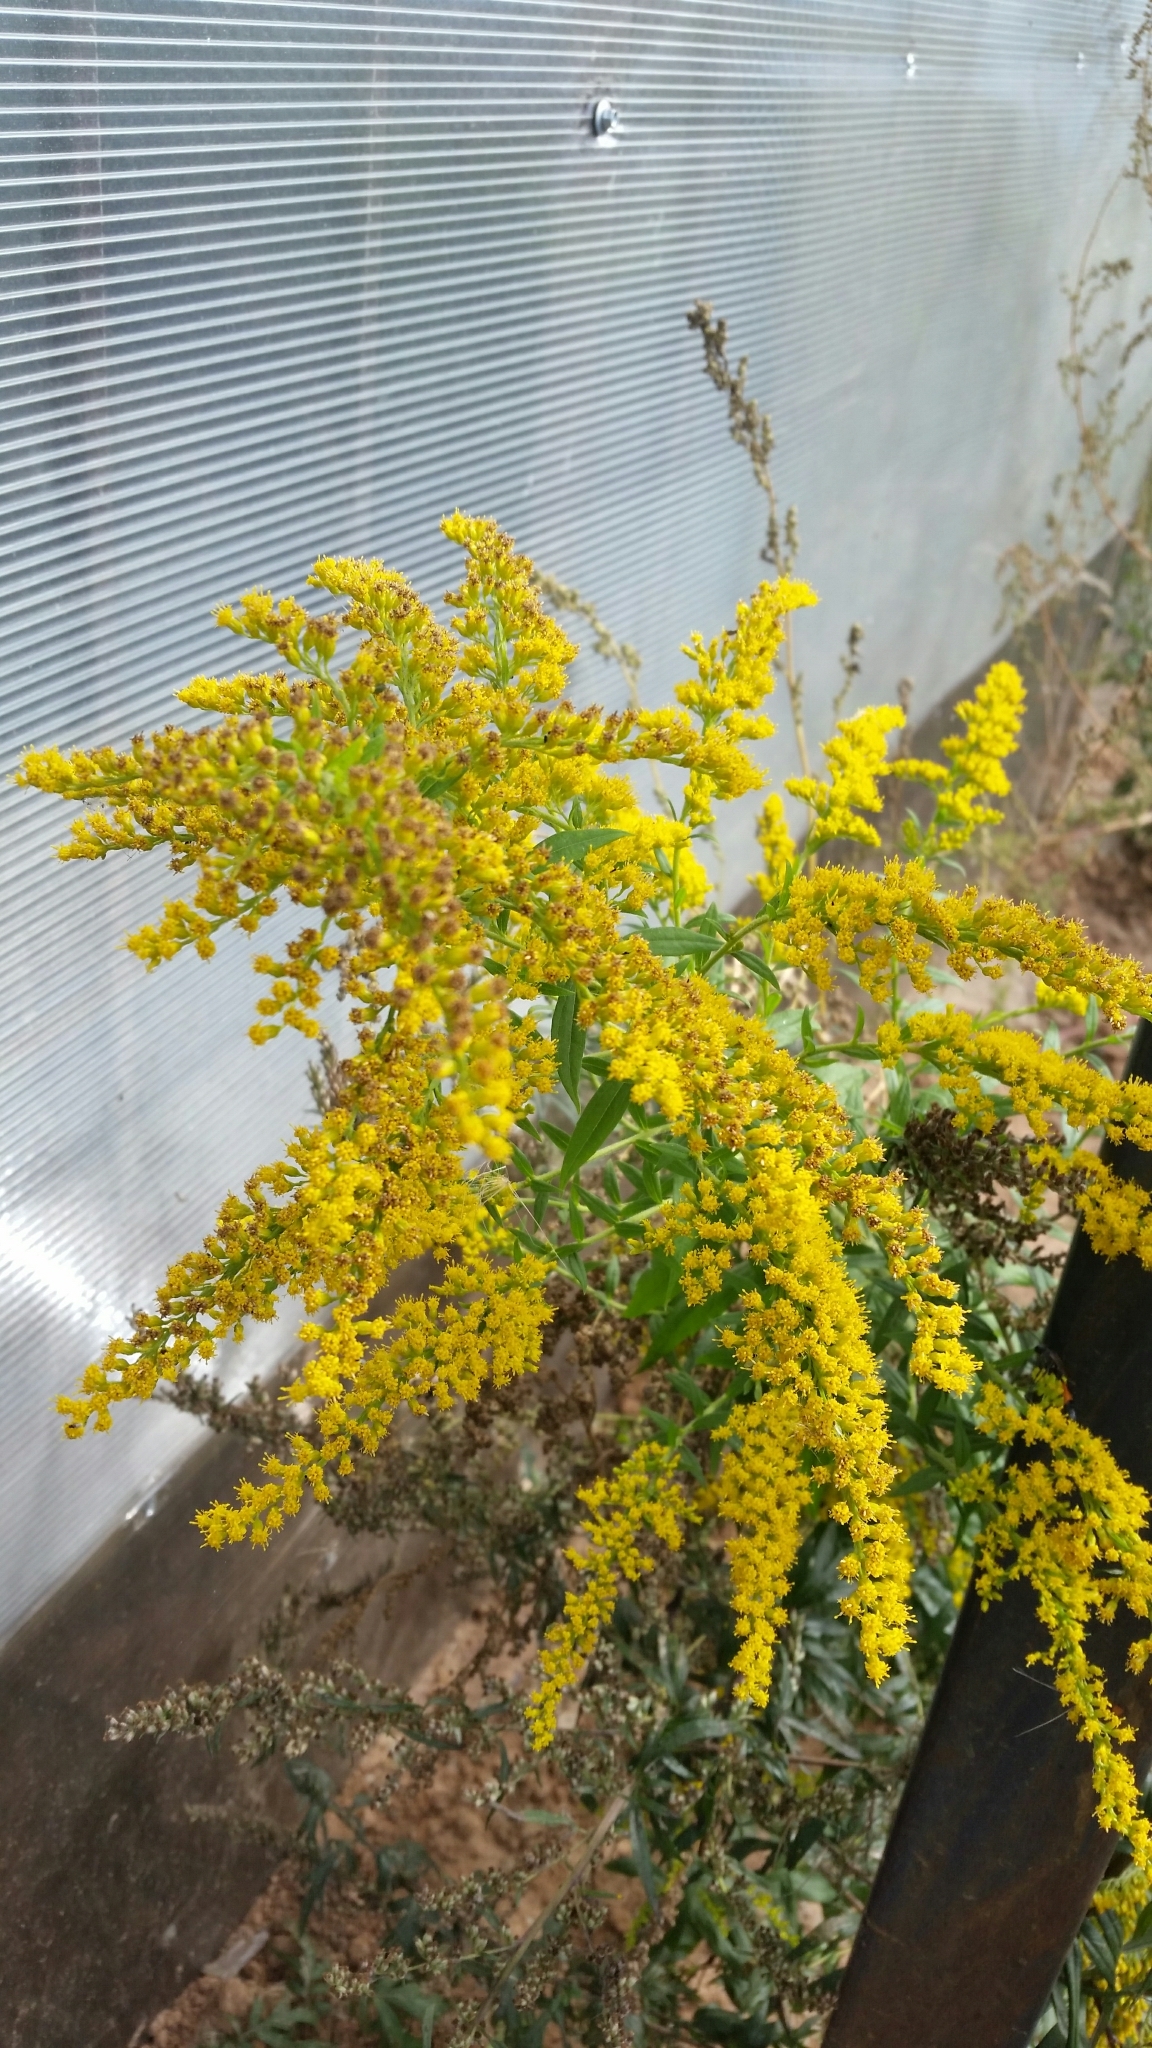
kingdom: Plantae
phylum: Tracheophyta
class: Magnoliopsida
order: Asterales
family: Asteraceae
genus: Solidago
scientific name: Solidago canadensis
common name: Canada goldenrod
